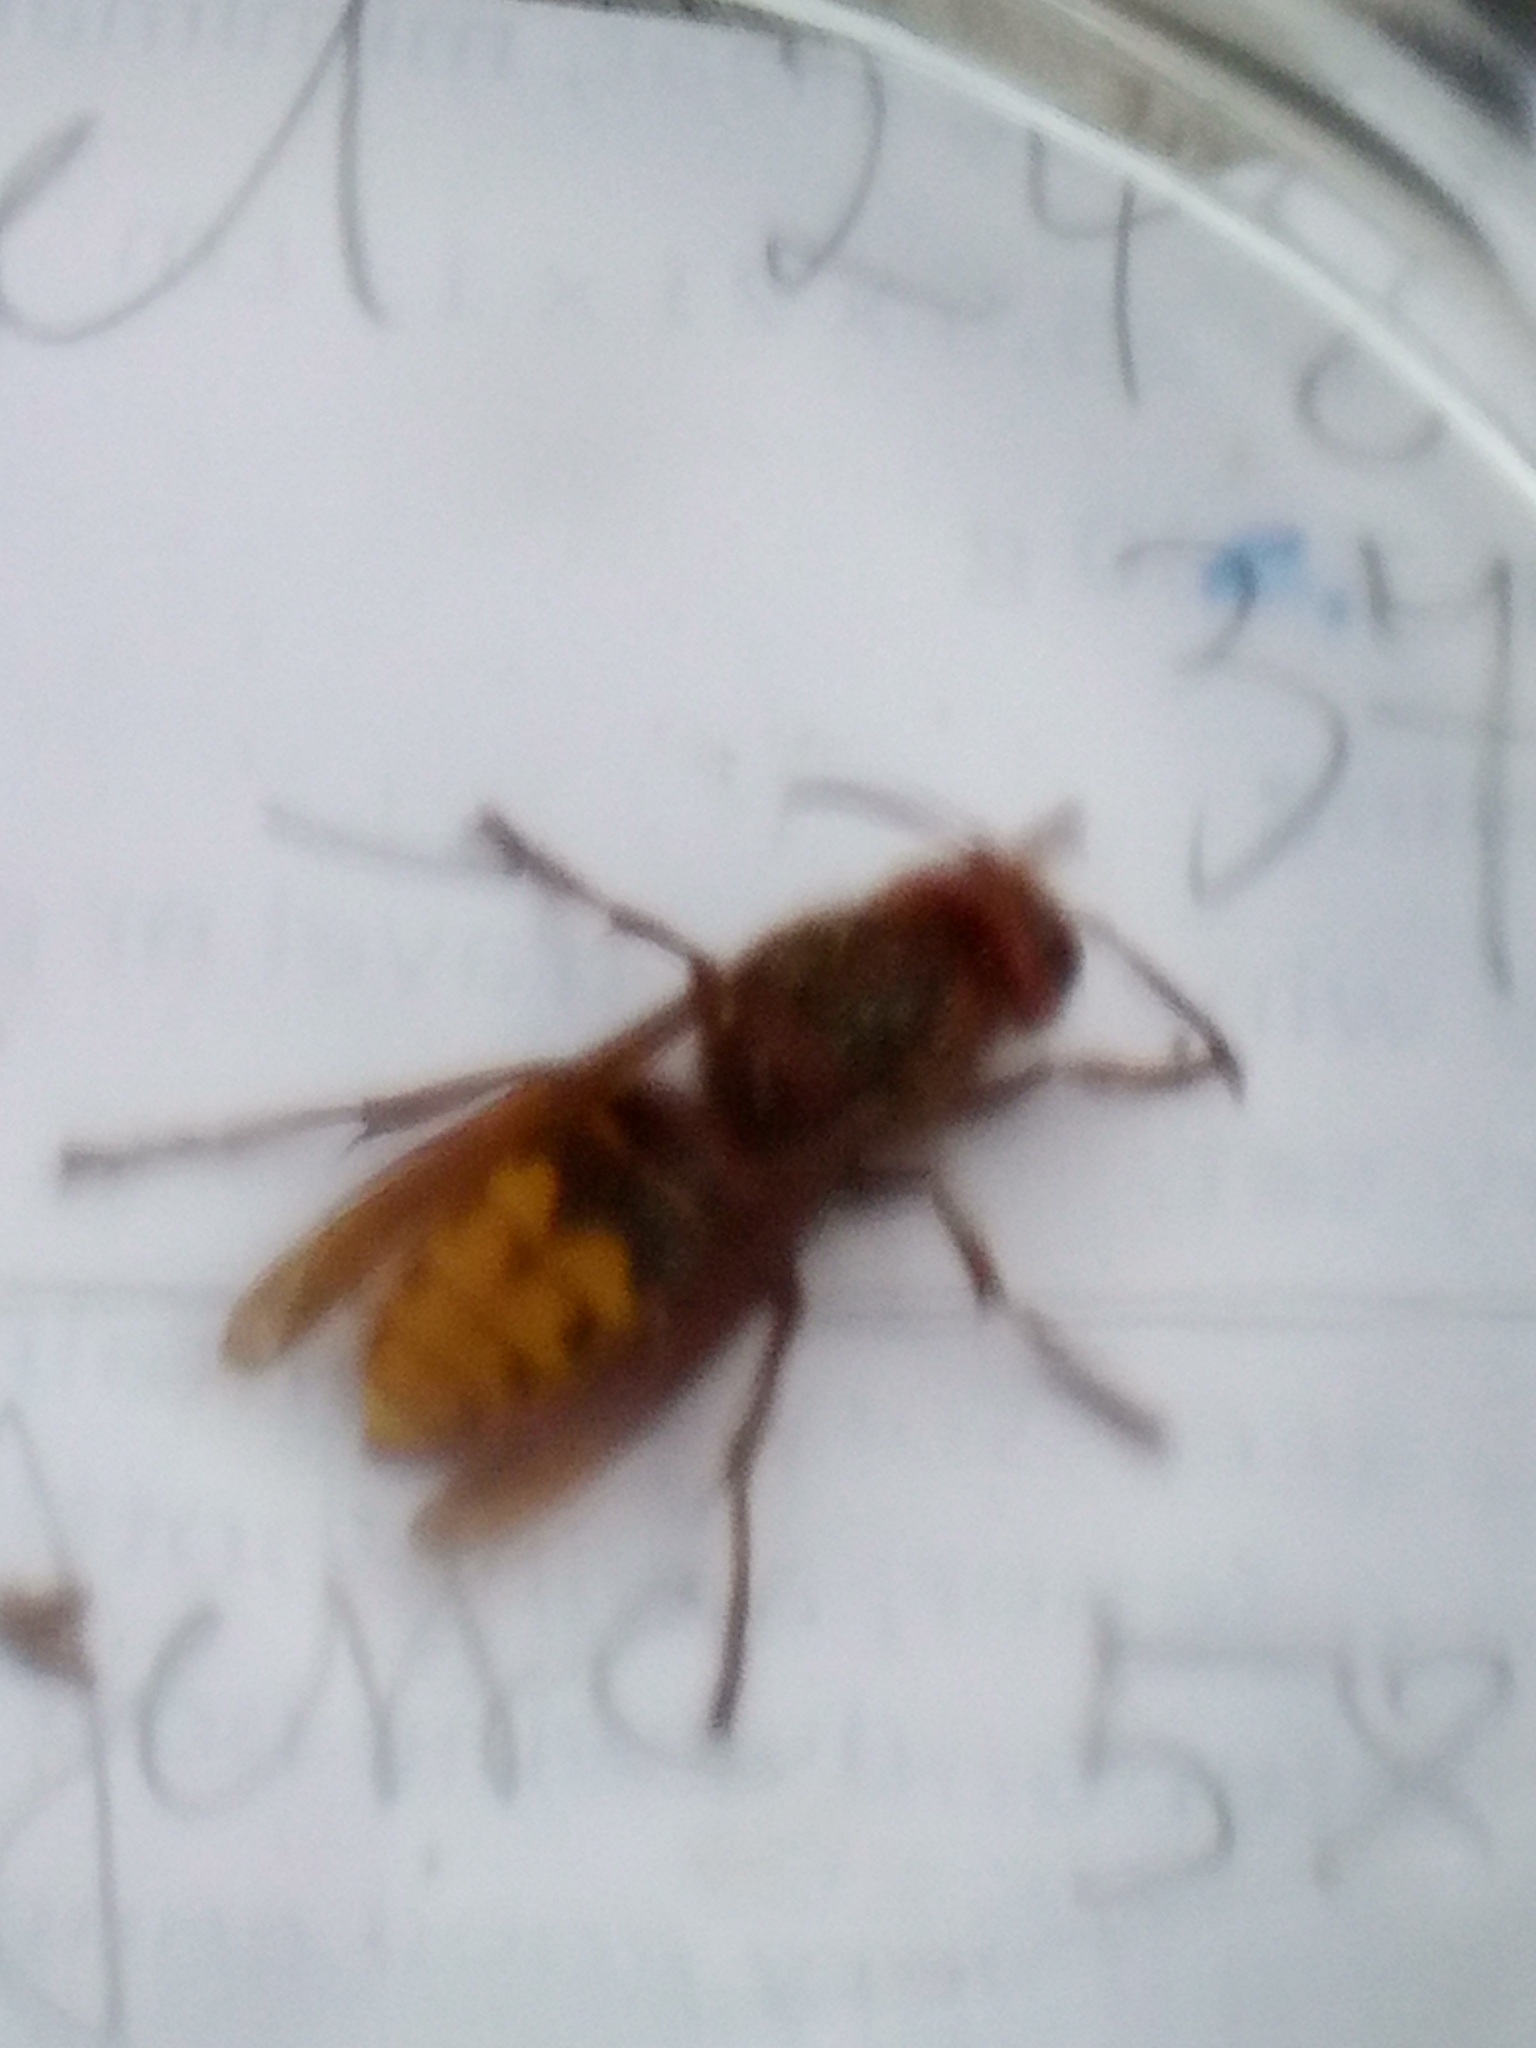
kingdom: Animalia
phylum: Arthropoda
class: Insecta
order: Hymenoptera
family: Vespidae
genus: Vespa
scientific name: Vespa crabro
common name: Hornet
